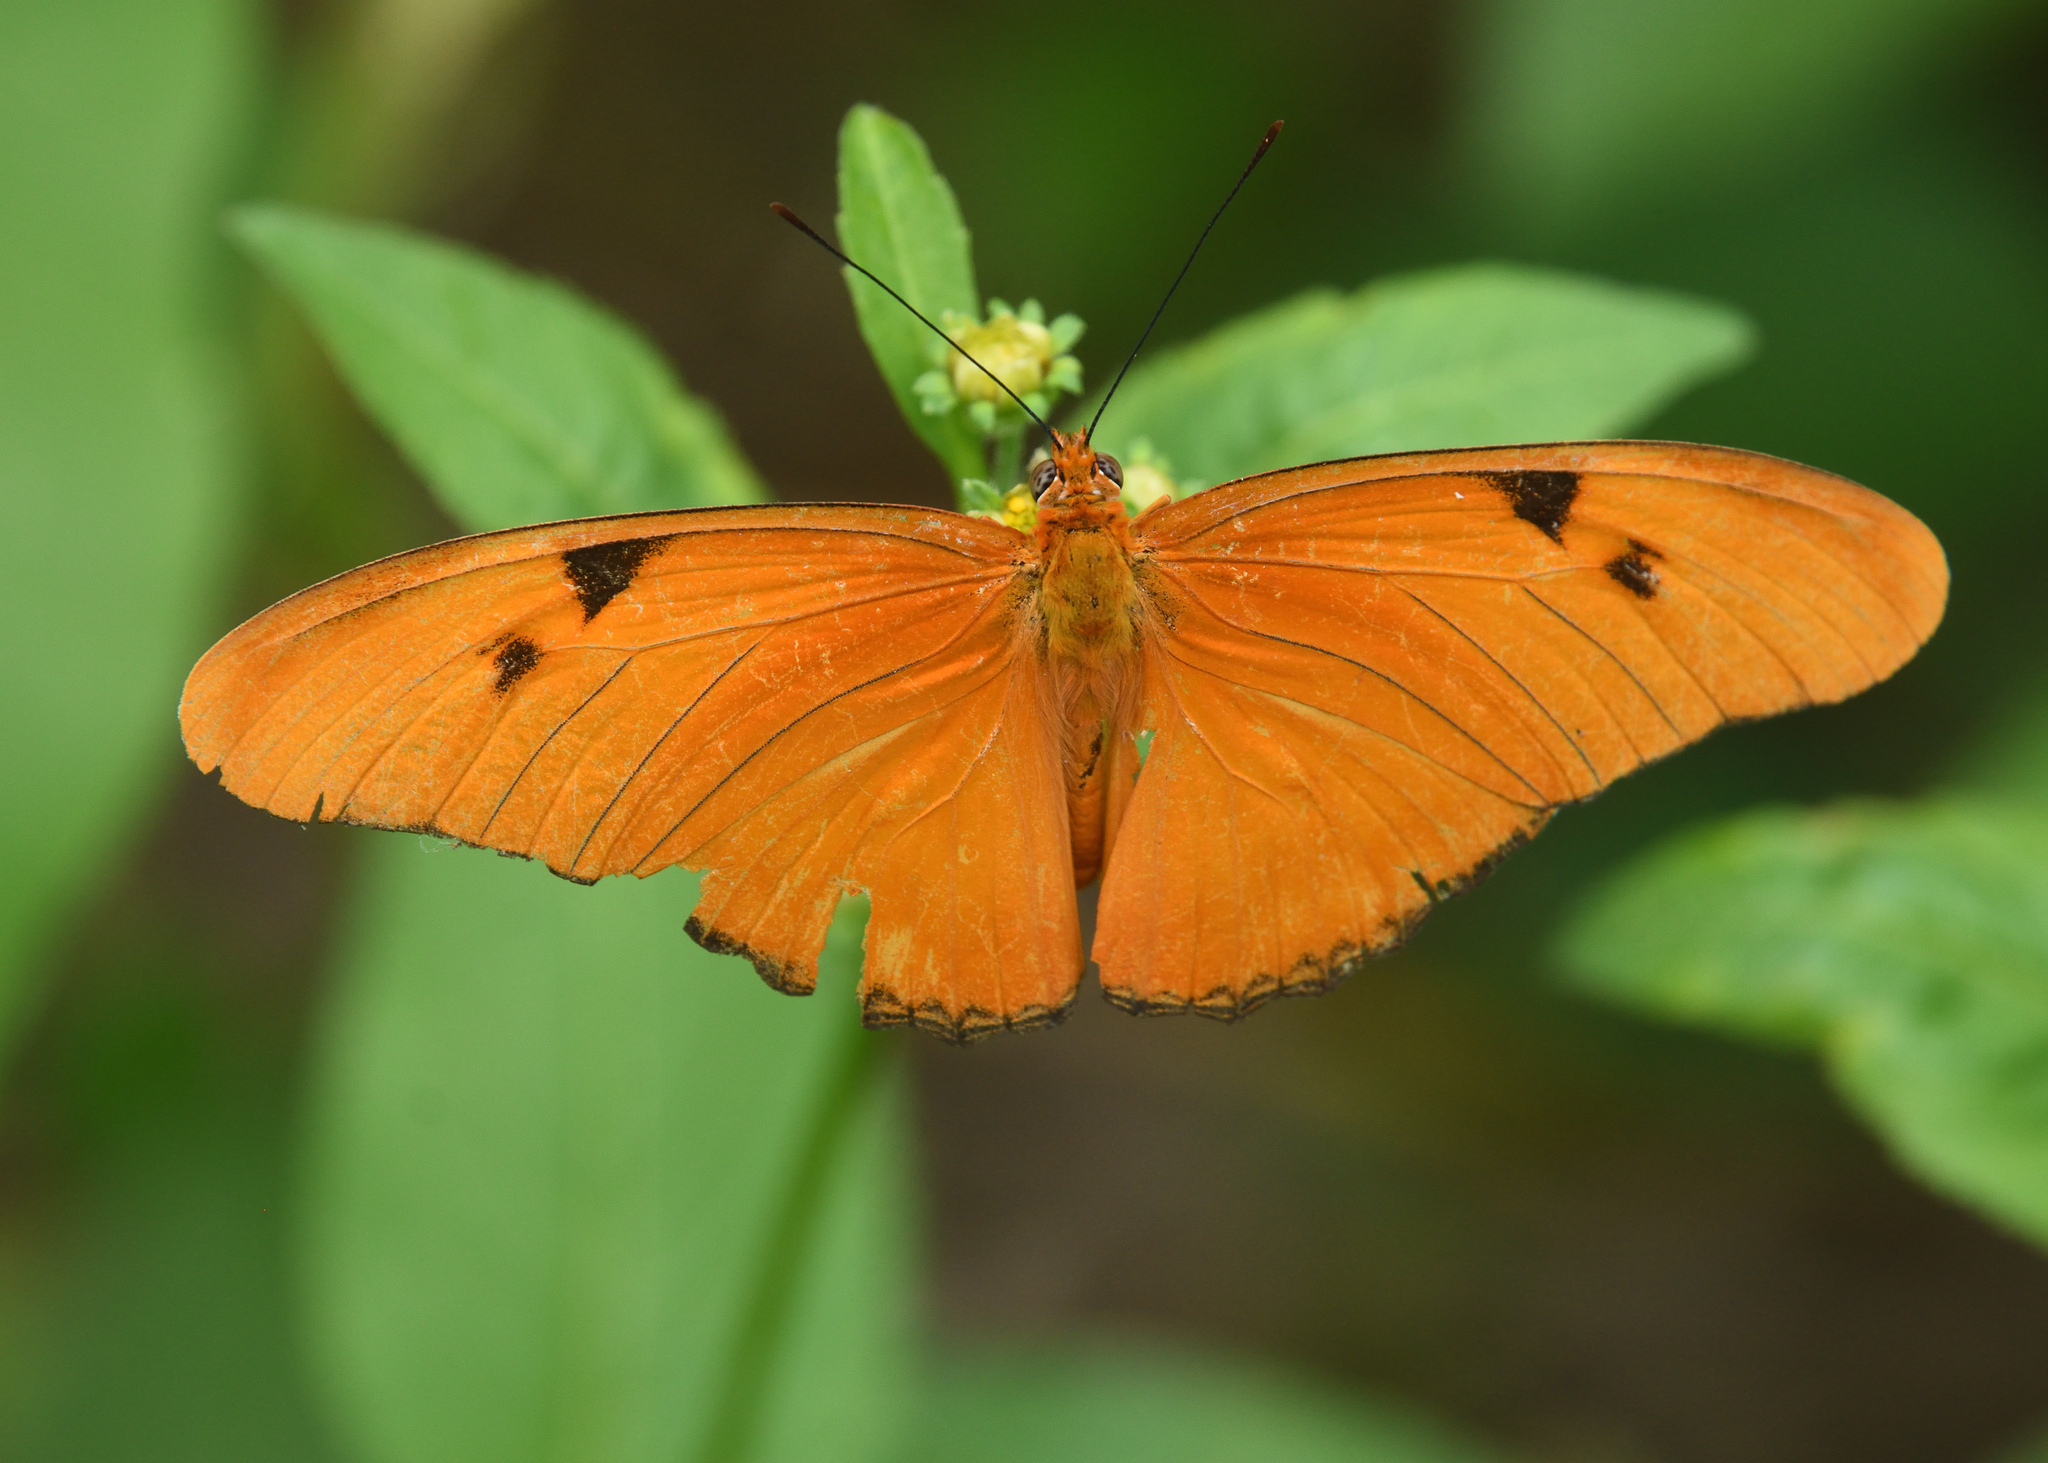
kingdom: Animalia
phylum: Arthropoda
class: Insecta
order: Lepidoptera
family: Nymphalidae
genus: Dryas
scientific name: Dryas iulia
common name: Flambeau
